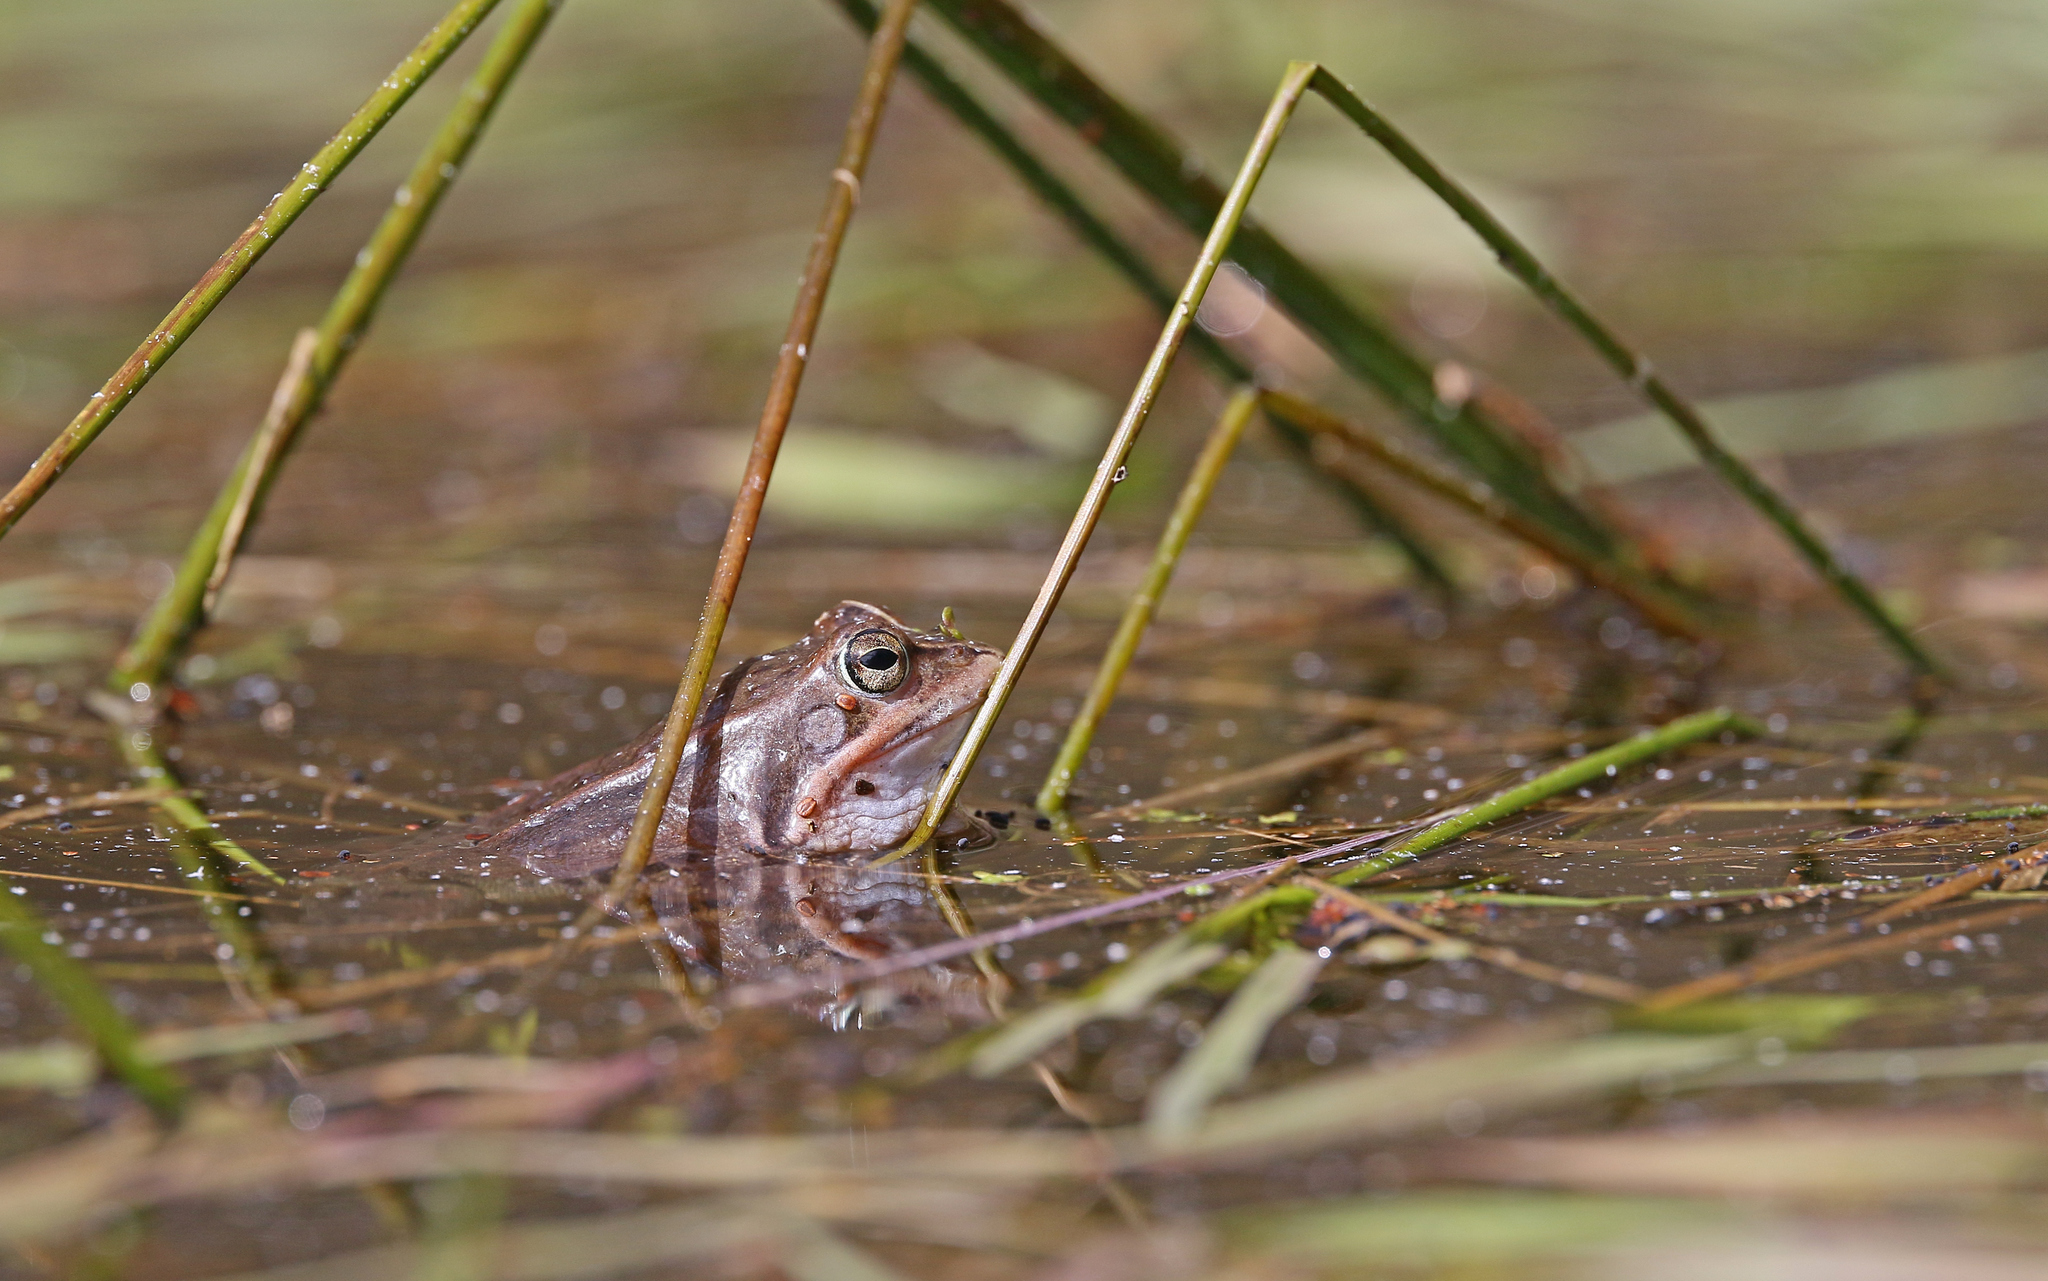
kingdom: Animalia
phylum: Chordata
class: Amphibia
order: Anura
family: Ranidae
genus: Rana
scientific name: Rana arvalis
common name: Moor frog
